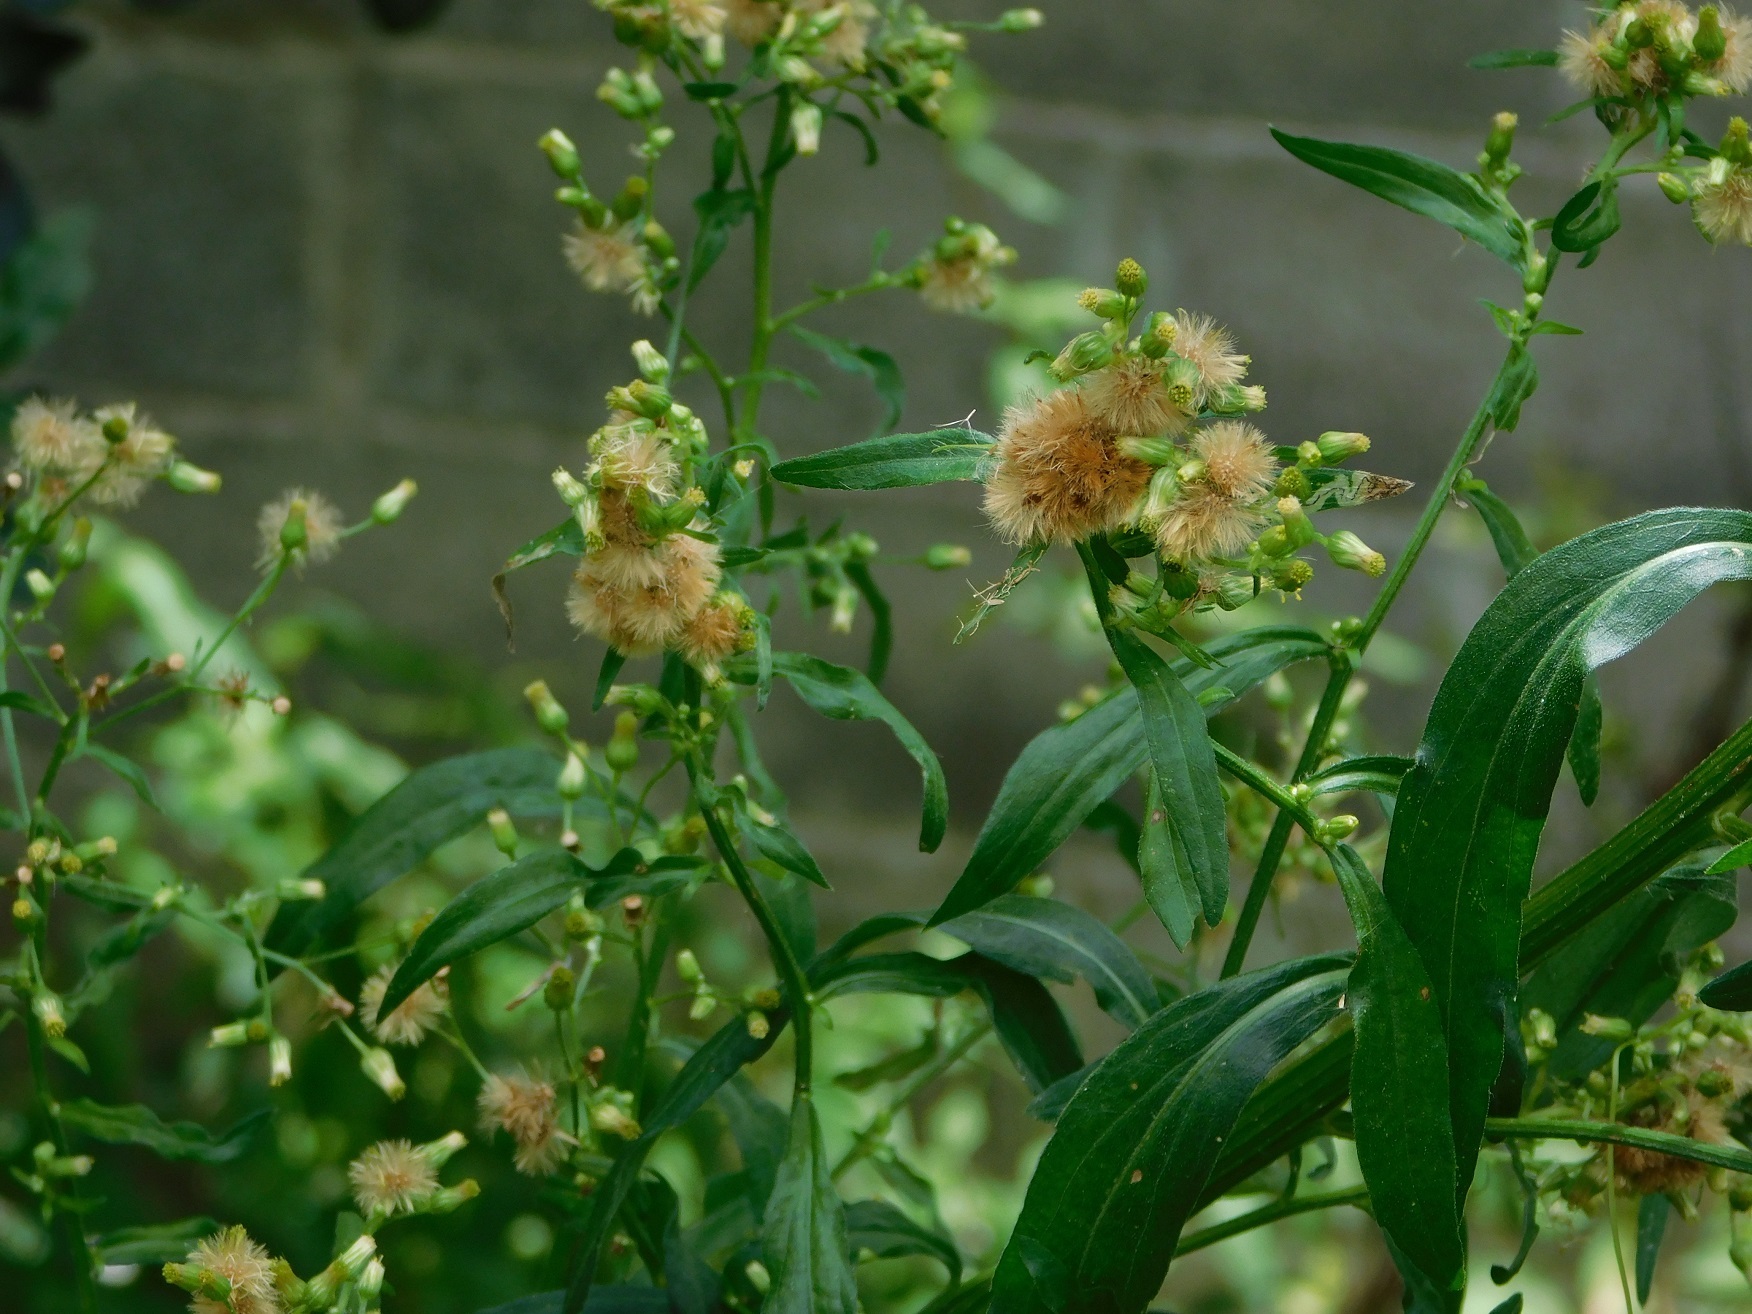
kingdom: Plantae
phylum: Tracheophyta
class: Magnoliopsida
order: Asterales
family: Asteraceae
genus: Erigeron
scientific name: Erigeron sumatrensis
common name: Daisy
